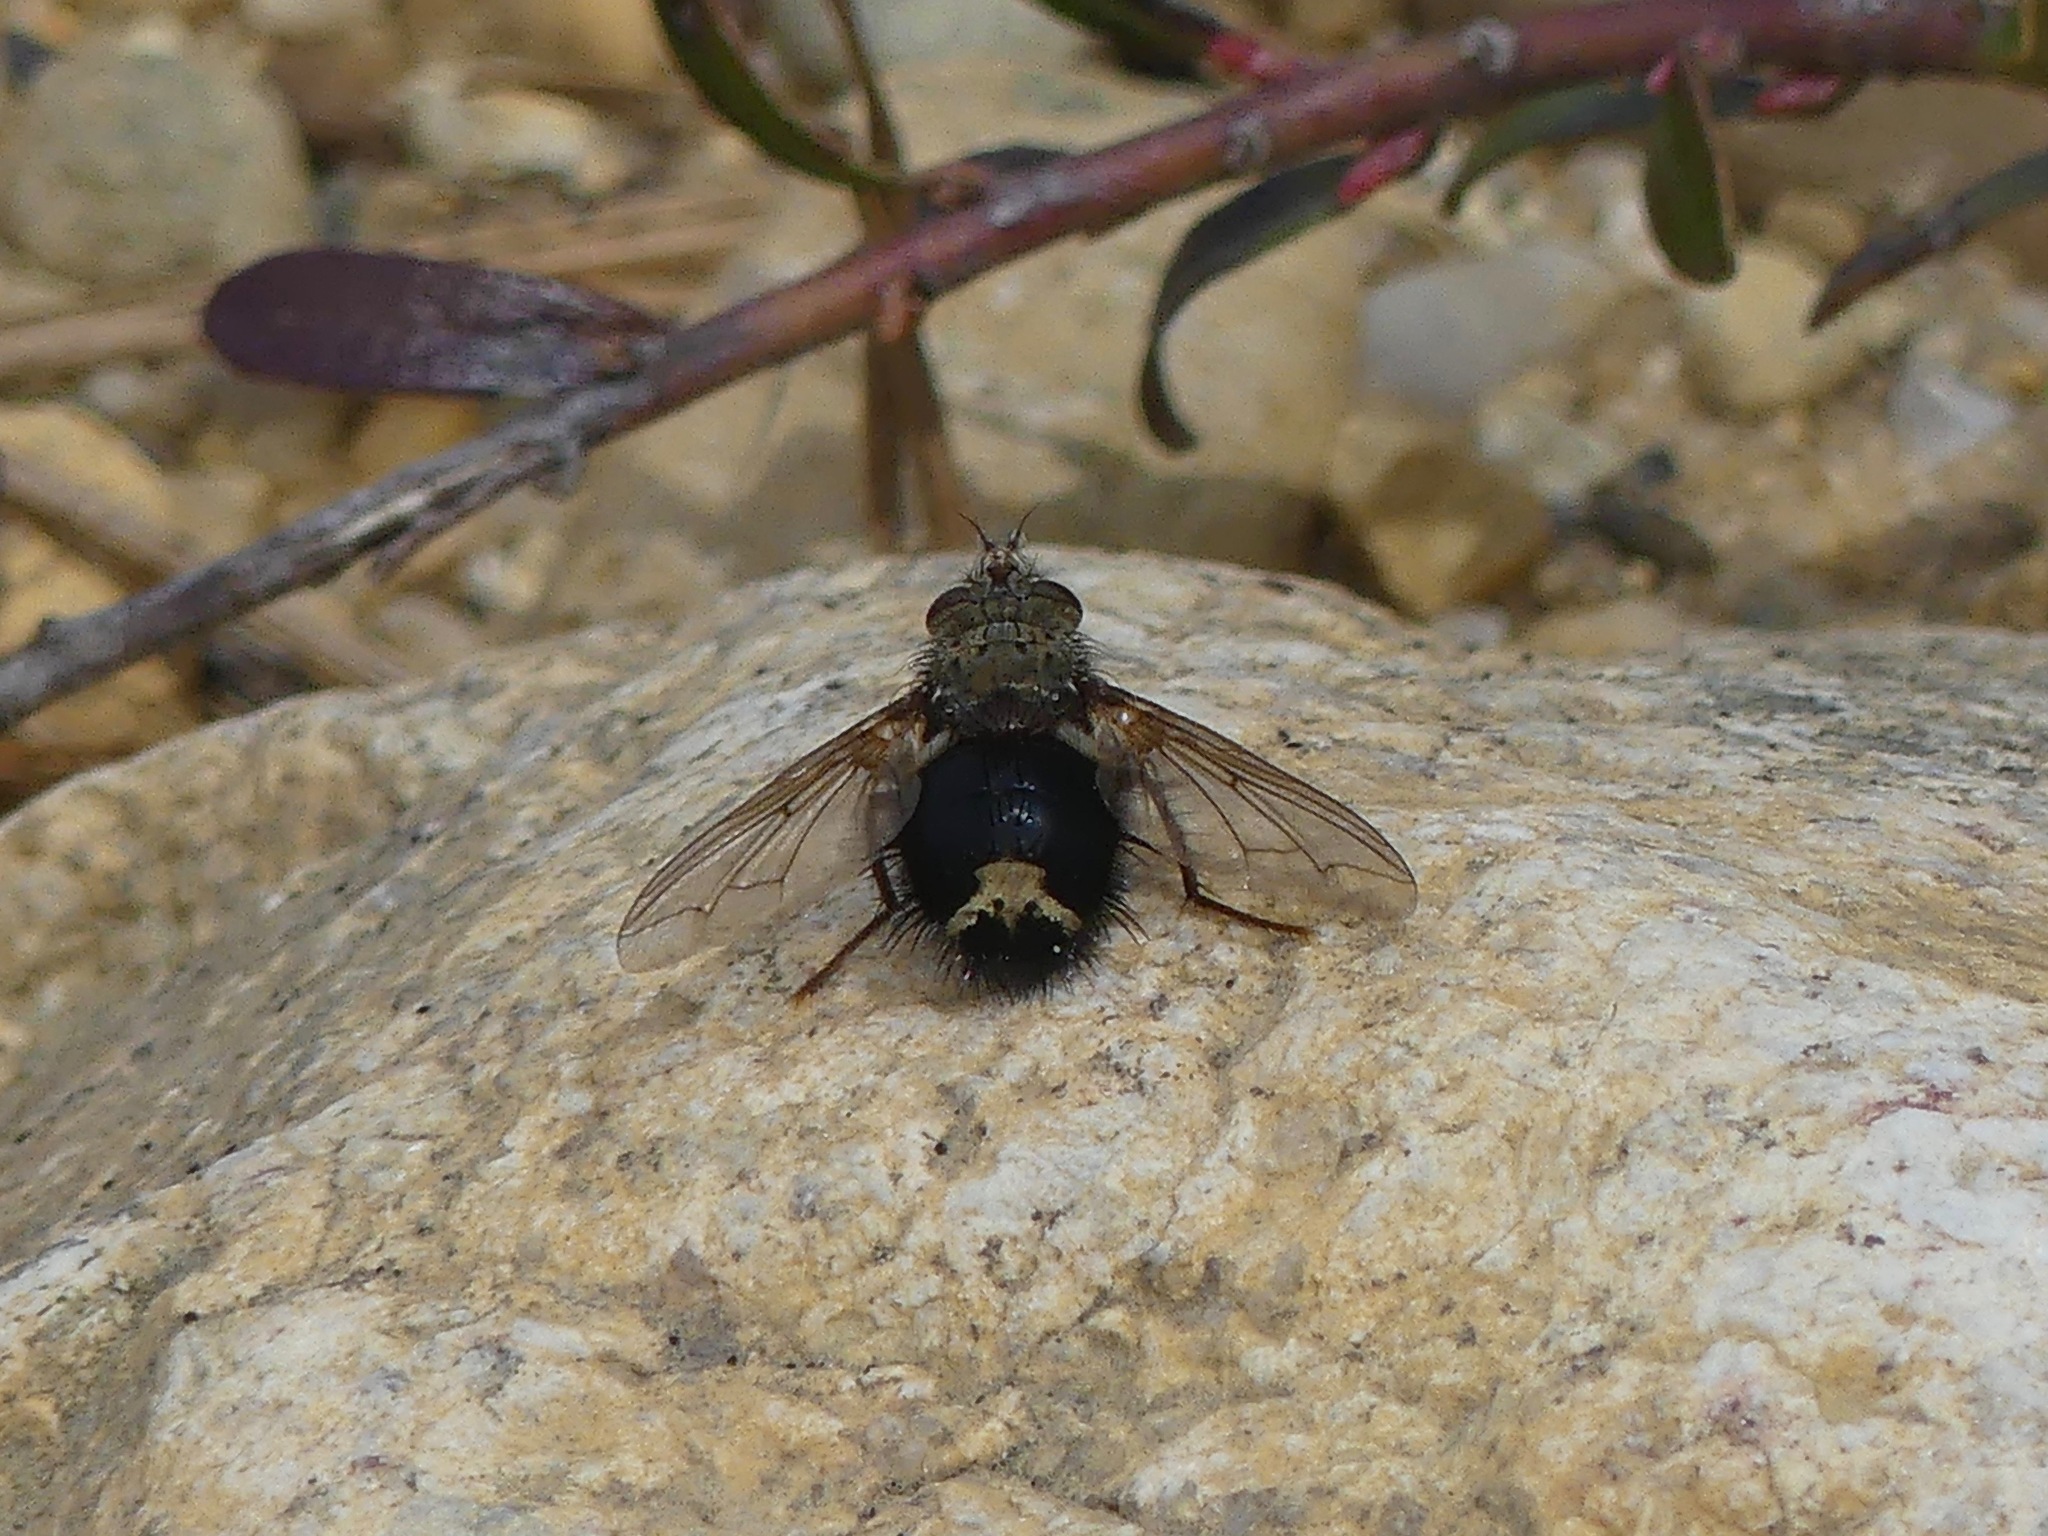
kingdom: Animalia
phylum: Arthropoda
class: Insecta
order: Diptera
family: Tachinidae
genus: Epalpus
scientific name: Epalpus signifer
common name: Early tachinid fly
